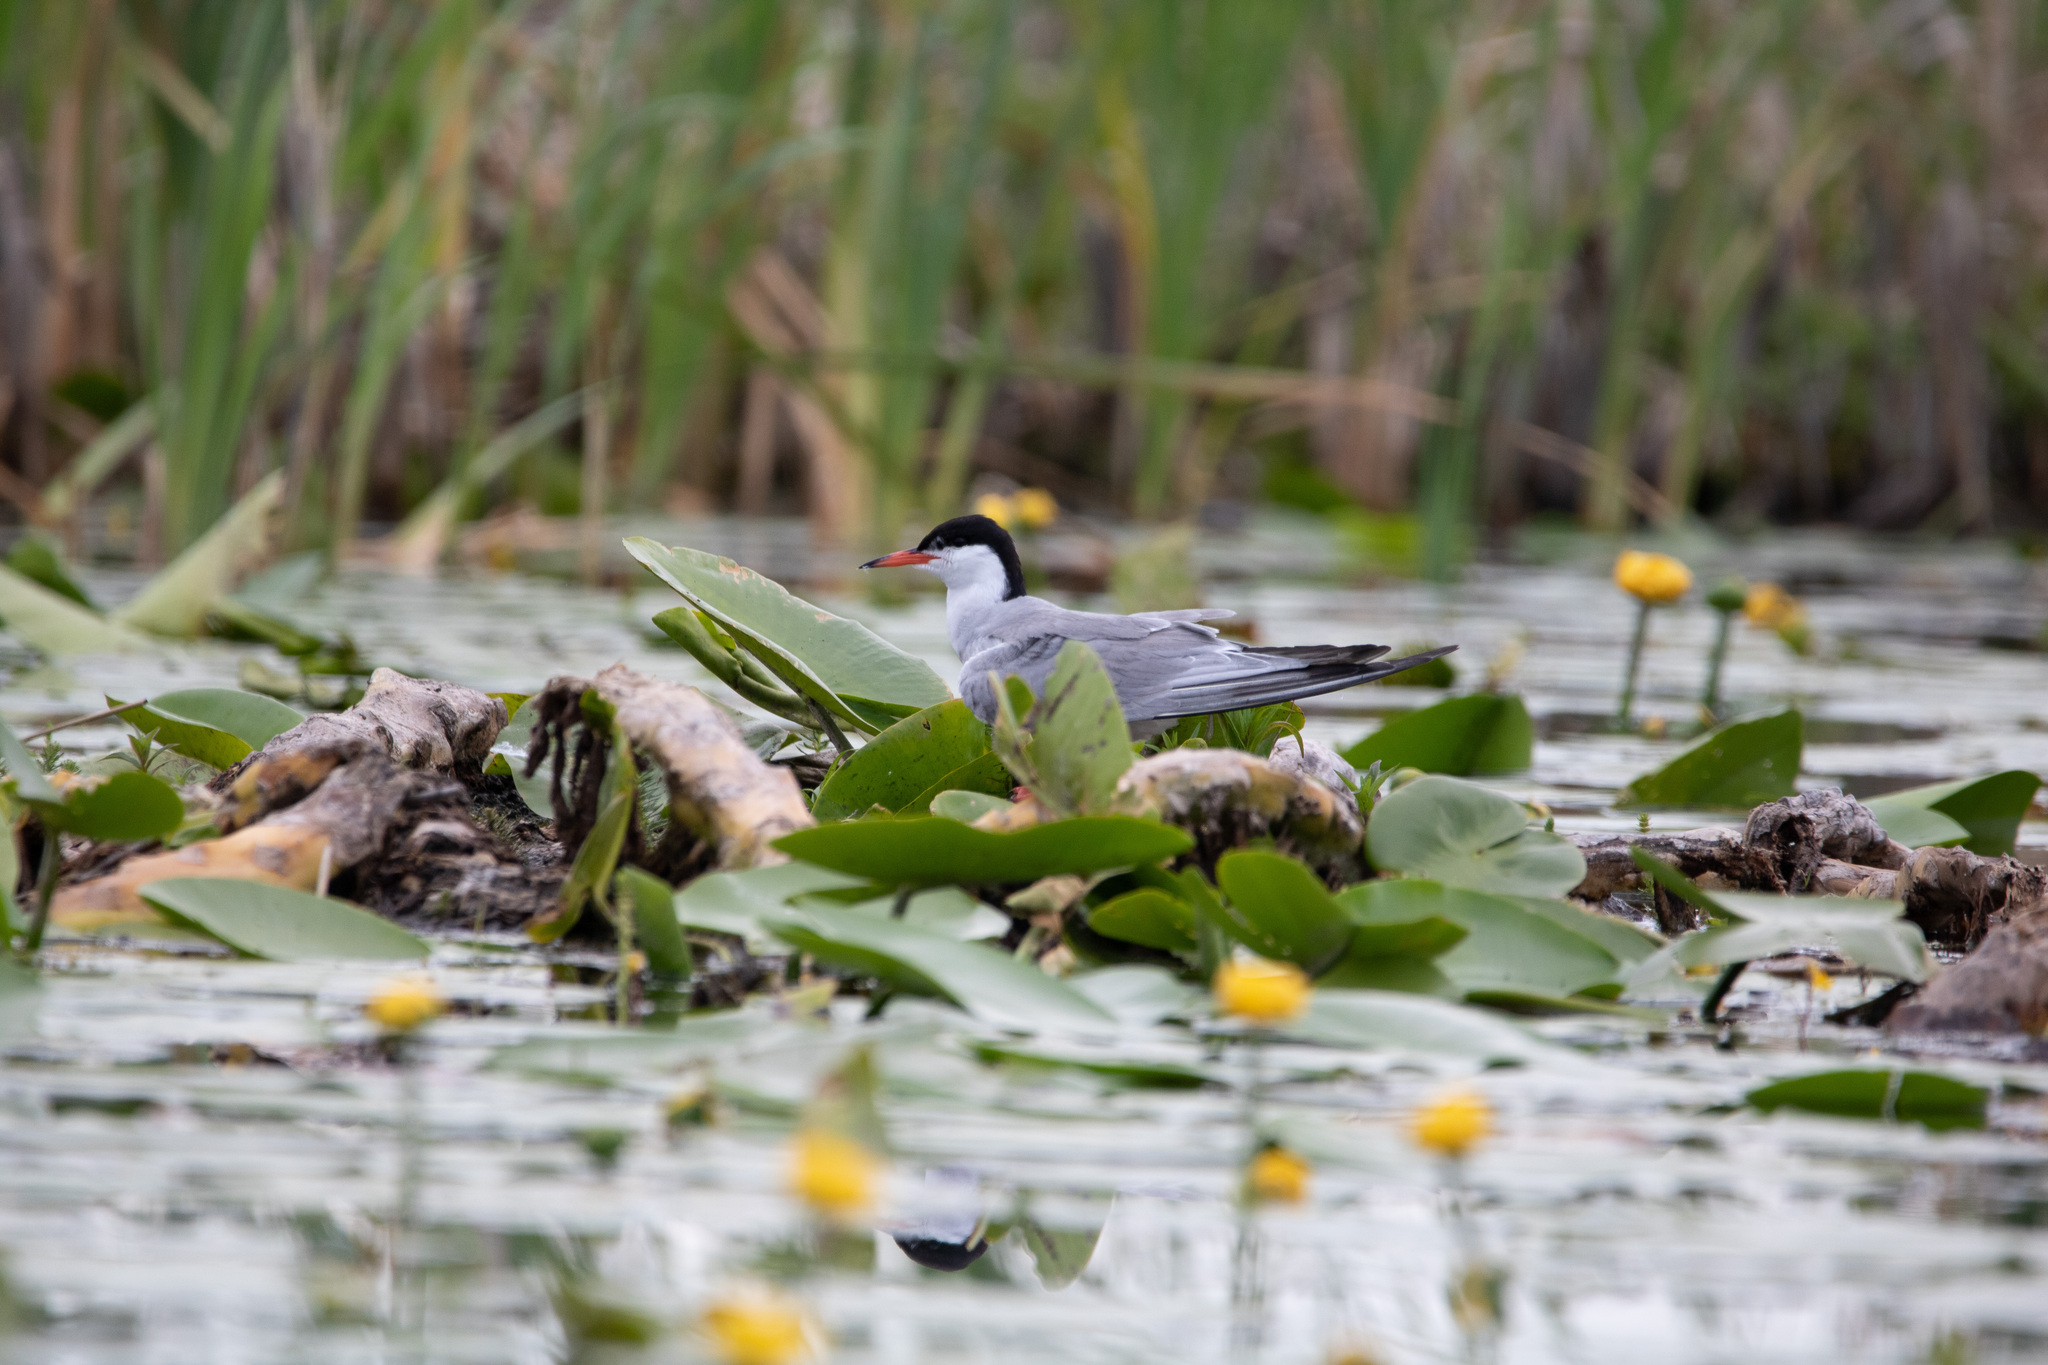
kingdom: Animalia
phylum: Chordata
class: Aves
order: Charadriiformes
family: Laridae
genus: Sterna
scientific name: Sterna hirundo
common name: Common tern
